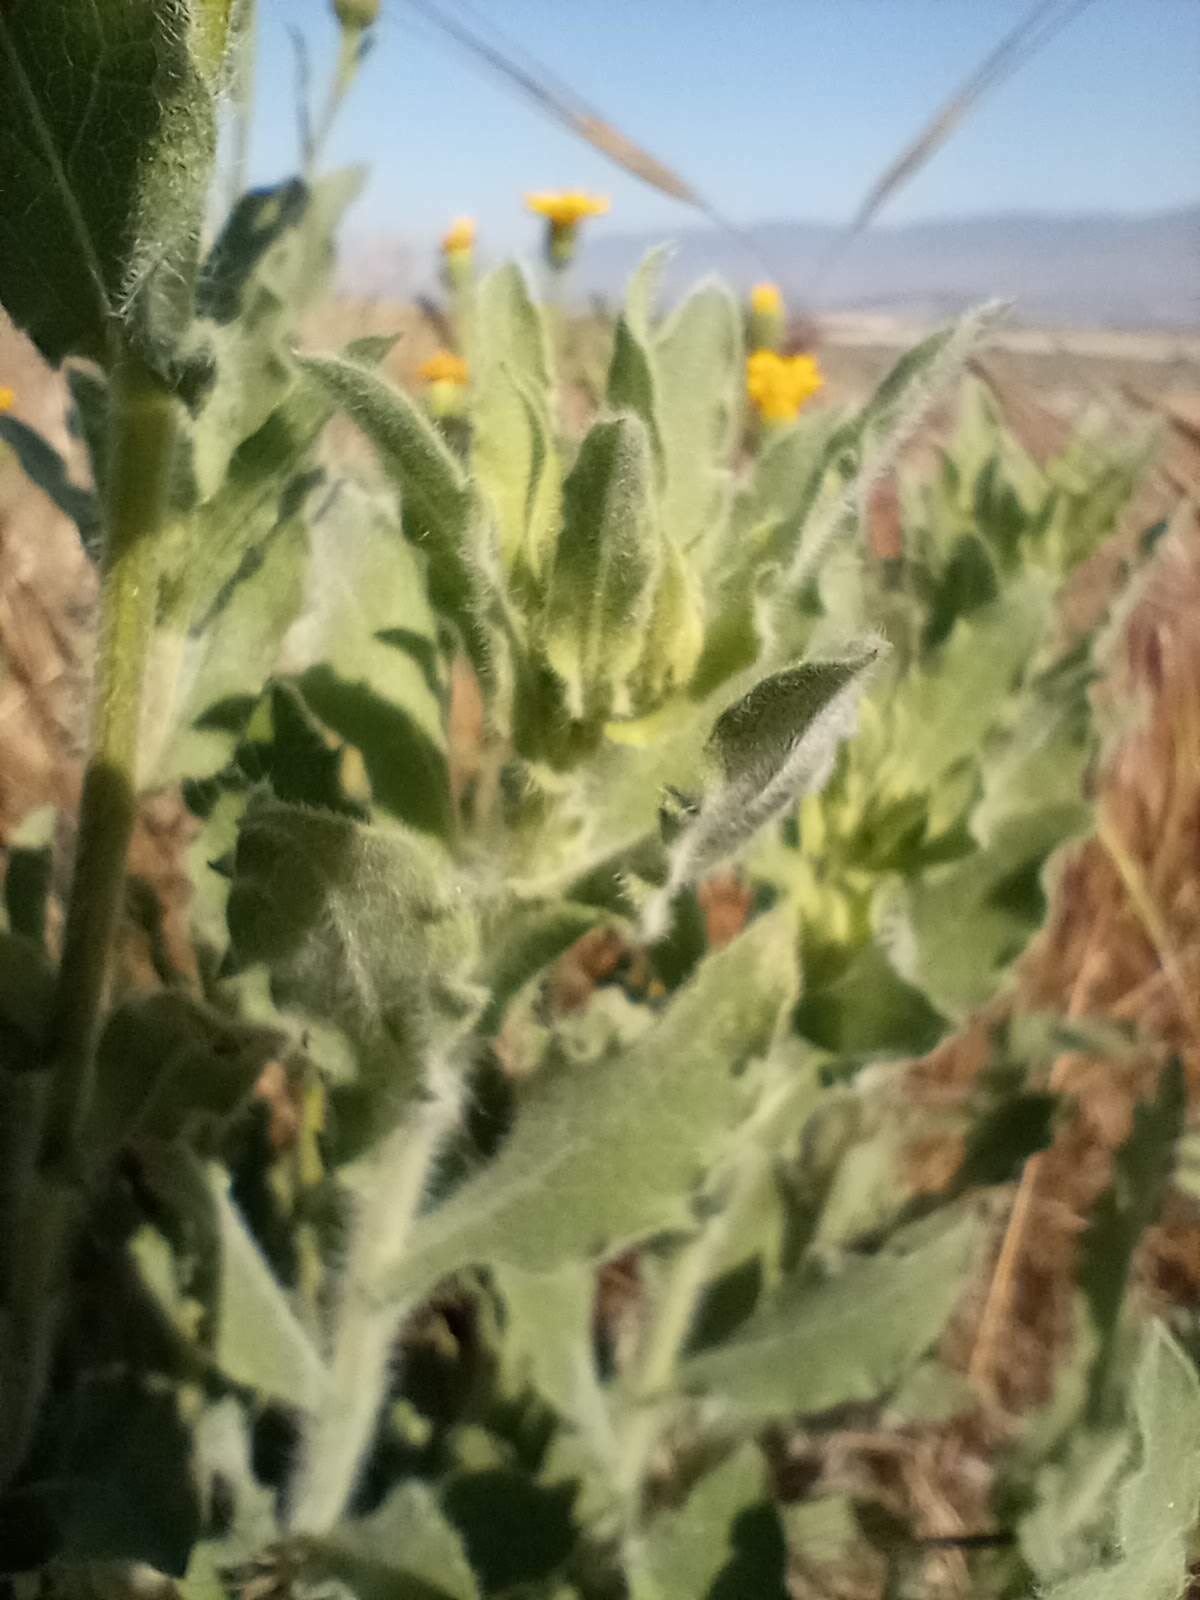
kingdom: Plantae
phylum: Tracheophyta
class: Magnoliopsida
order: Asterales
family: Asteraceae
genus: Heterotheca
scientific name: Heterotheca grandiflora
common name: Telegraphweed
